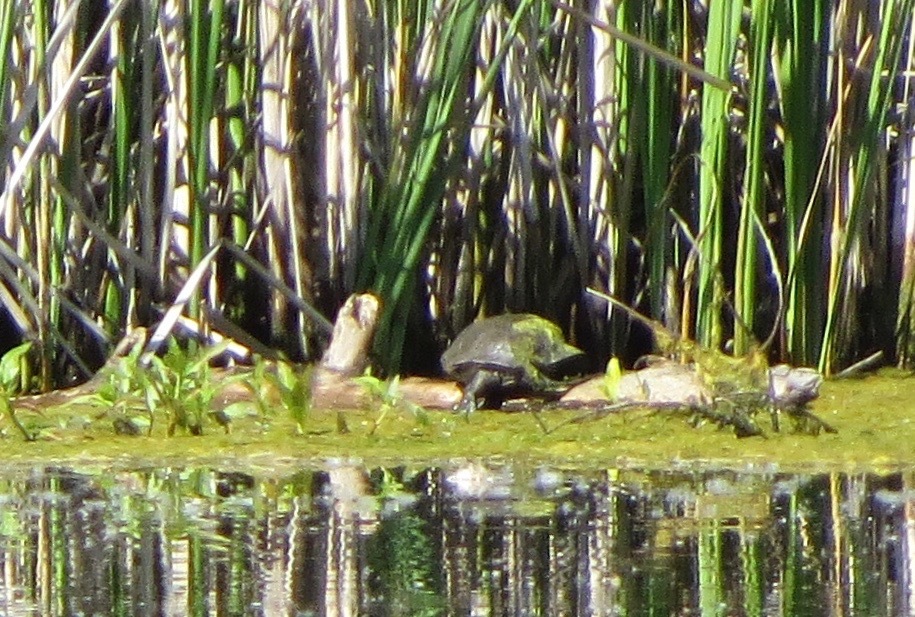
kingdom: Animalia
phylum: Chordata
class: Testudines
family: Emydidae
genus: Actinemys
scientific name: Actinemys marmorata
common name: Western pond turtle
